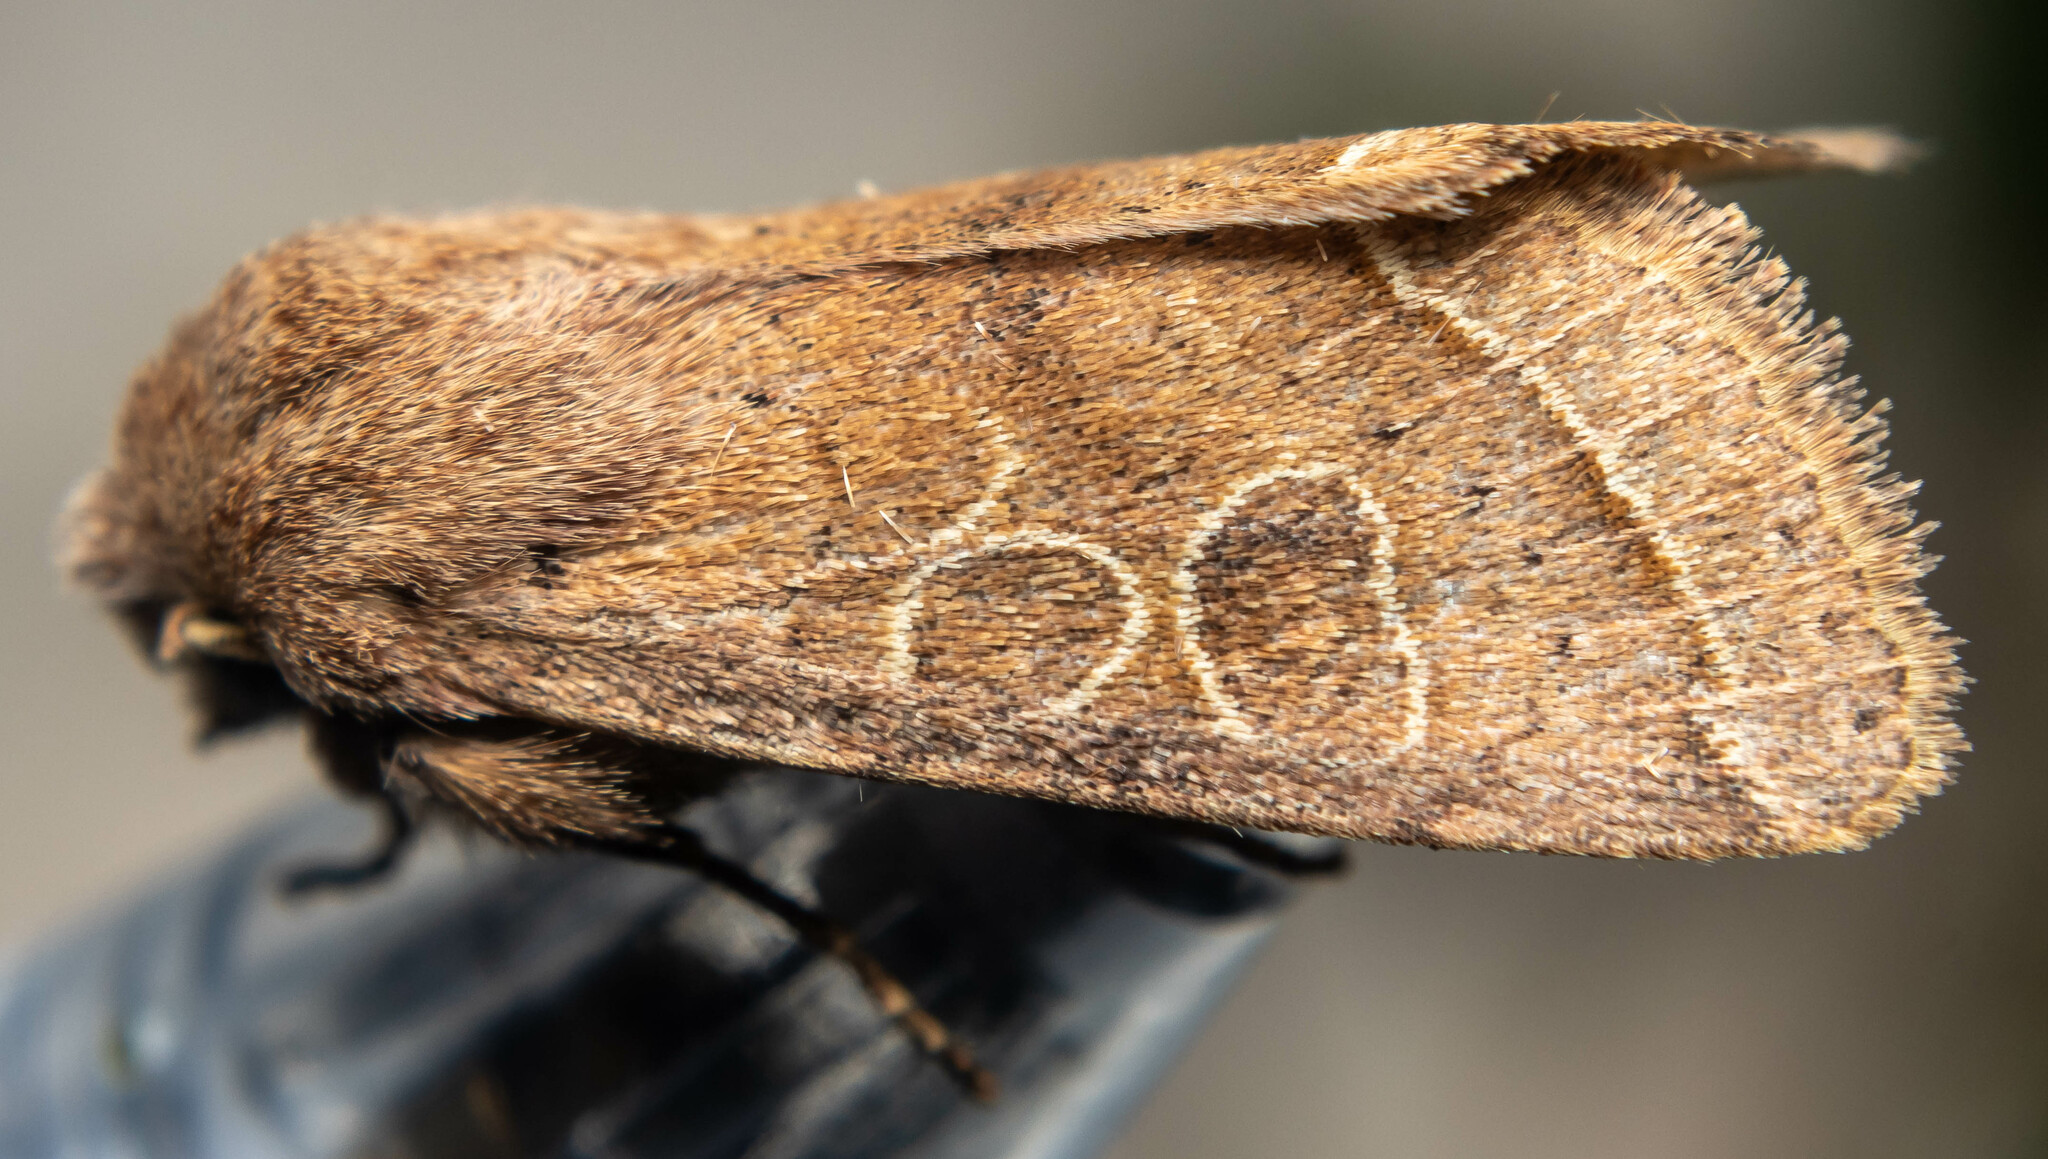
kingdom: Animalia
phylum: Arthropoda
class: Insecta
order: Lepidoptera
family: Noctuidae
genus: Orthosia
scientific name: Orthosia cerasi
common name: Common quaker
